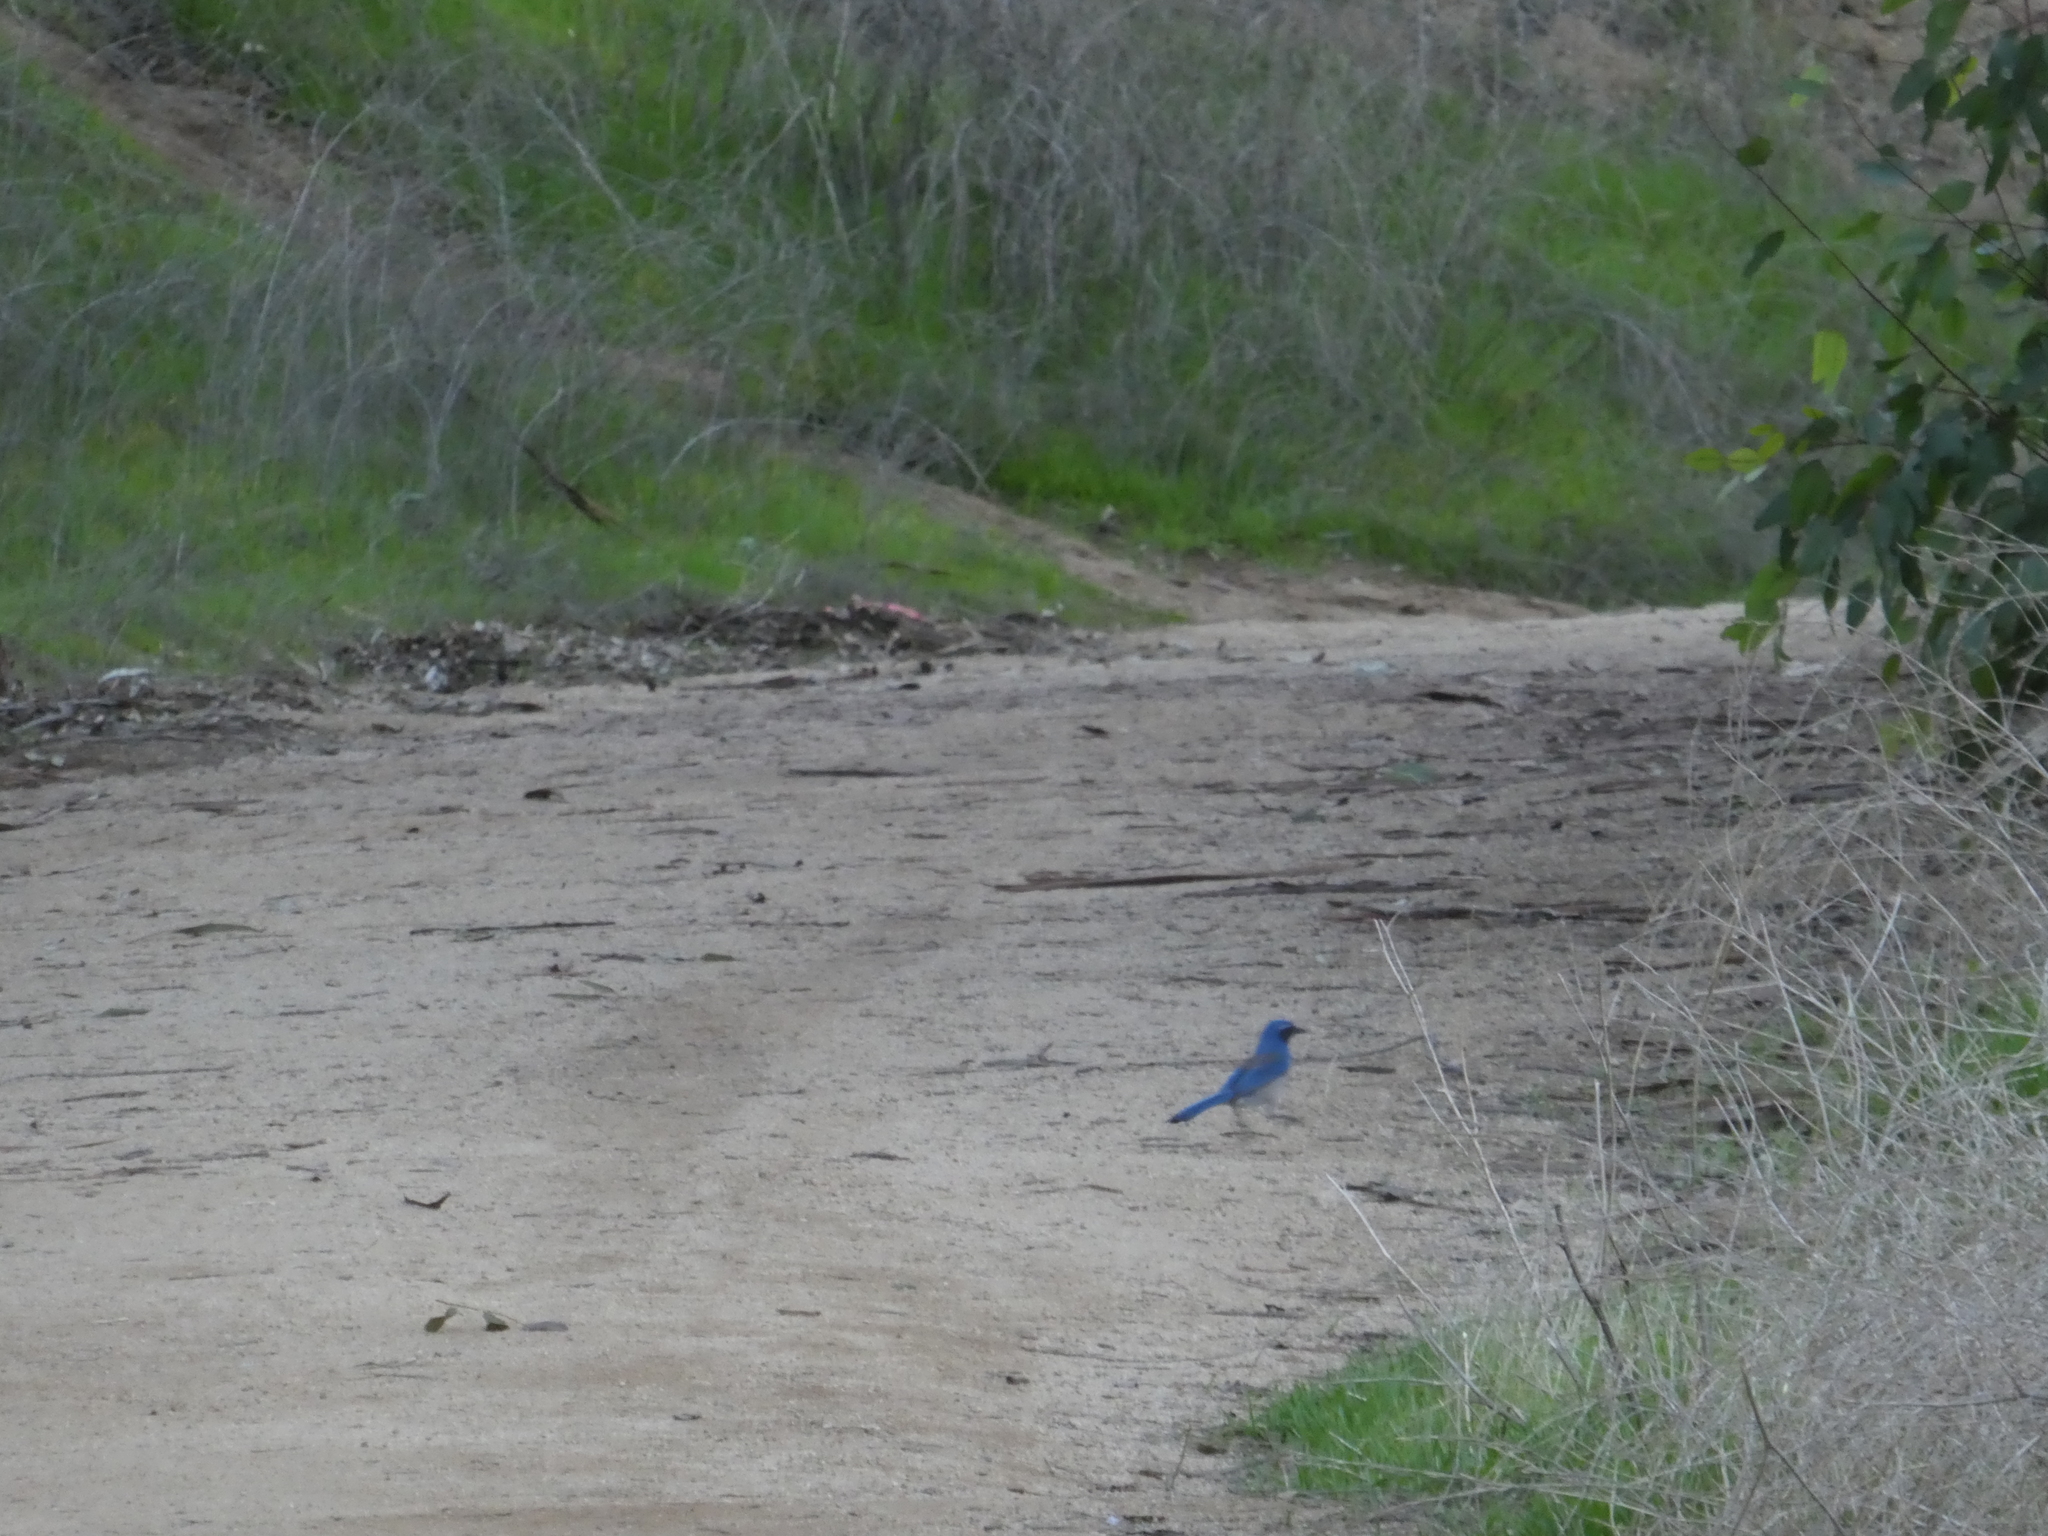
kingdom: Animalia
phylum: Chordata
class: Aves
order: Passeriformes
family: Corvidae
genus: Aphelocoma
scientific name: Aphelocoma californica
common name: California scrub-jay
